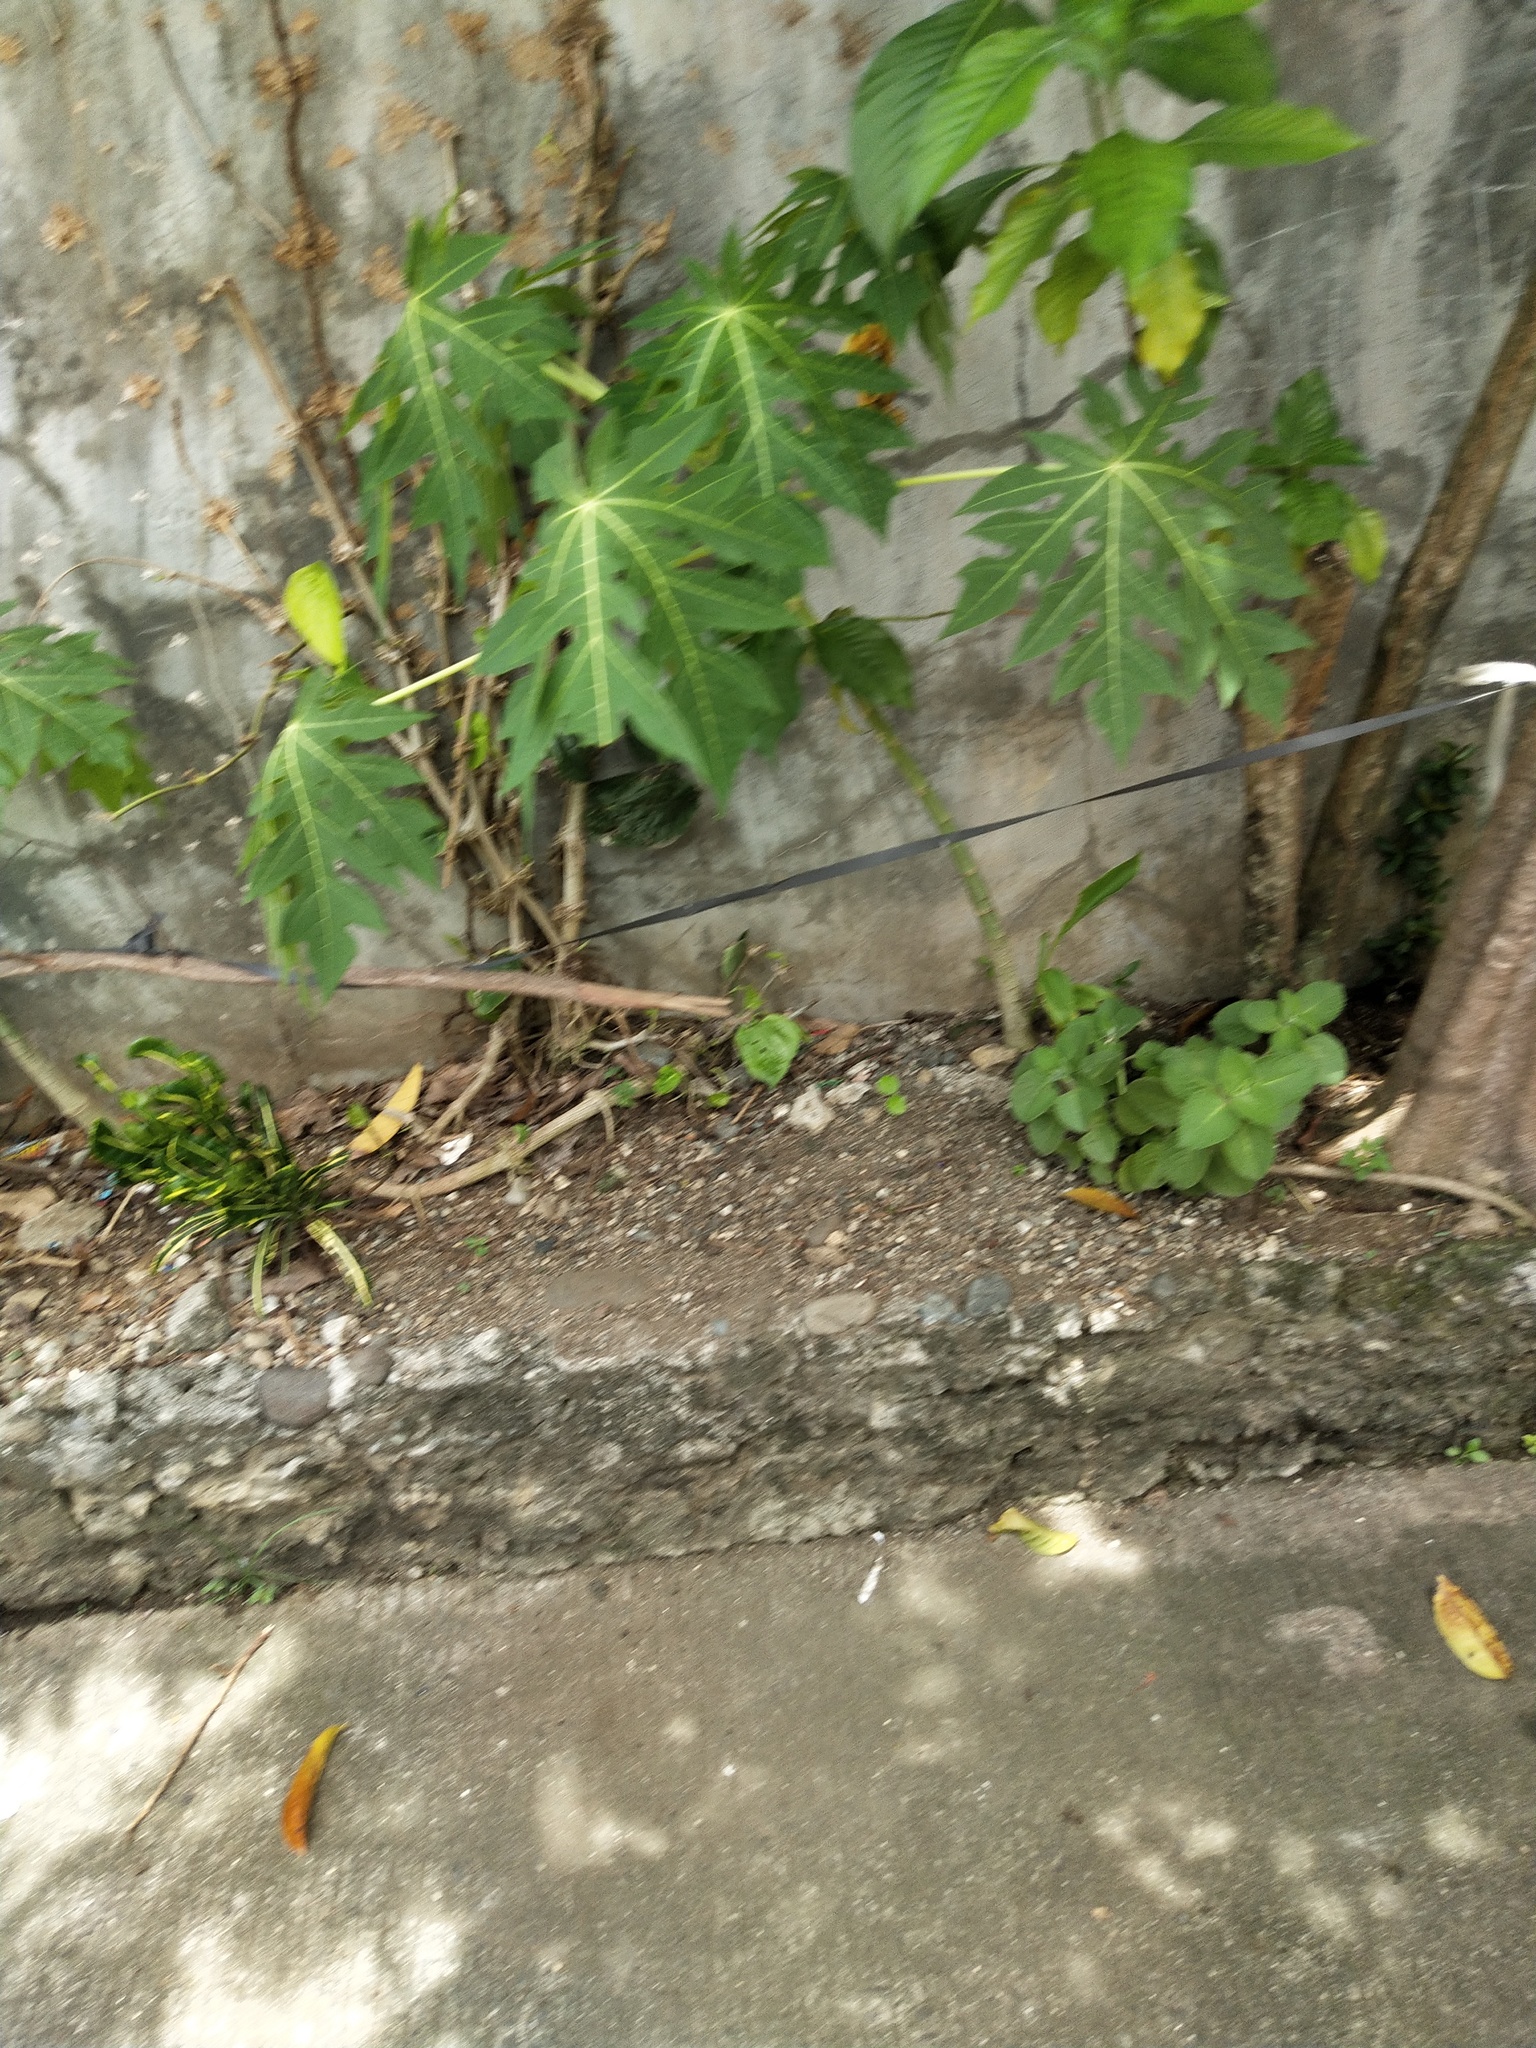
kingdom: Plantae
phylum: Tracheophyta
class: Magnoliopsida
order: Brassicales
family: Caricaceae
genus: Carica
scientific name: Carica papaya
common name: Papaya
